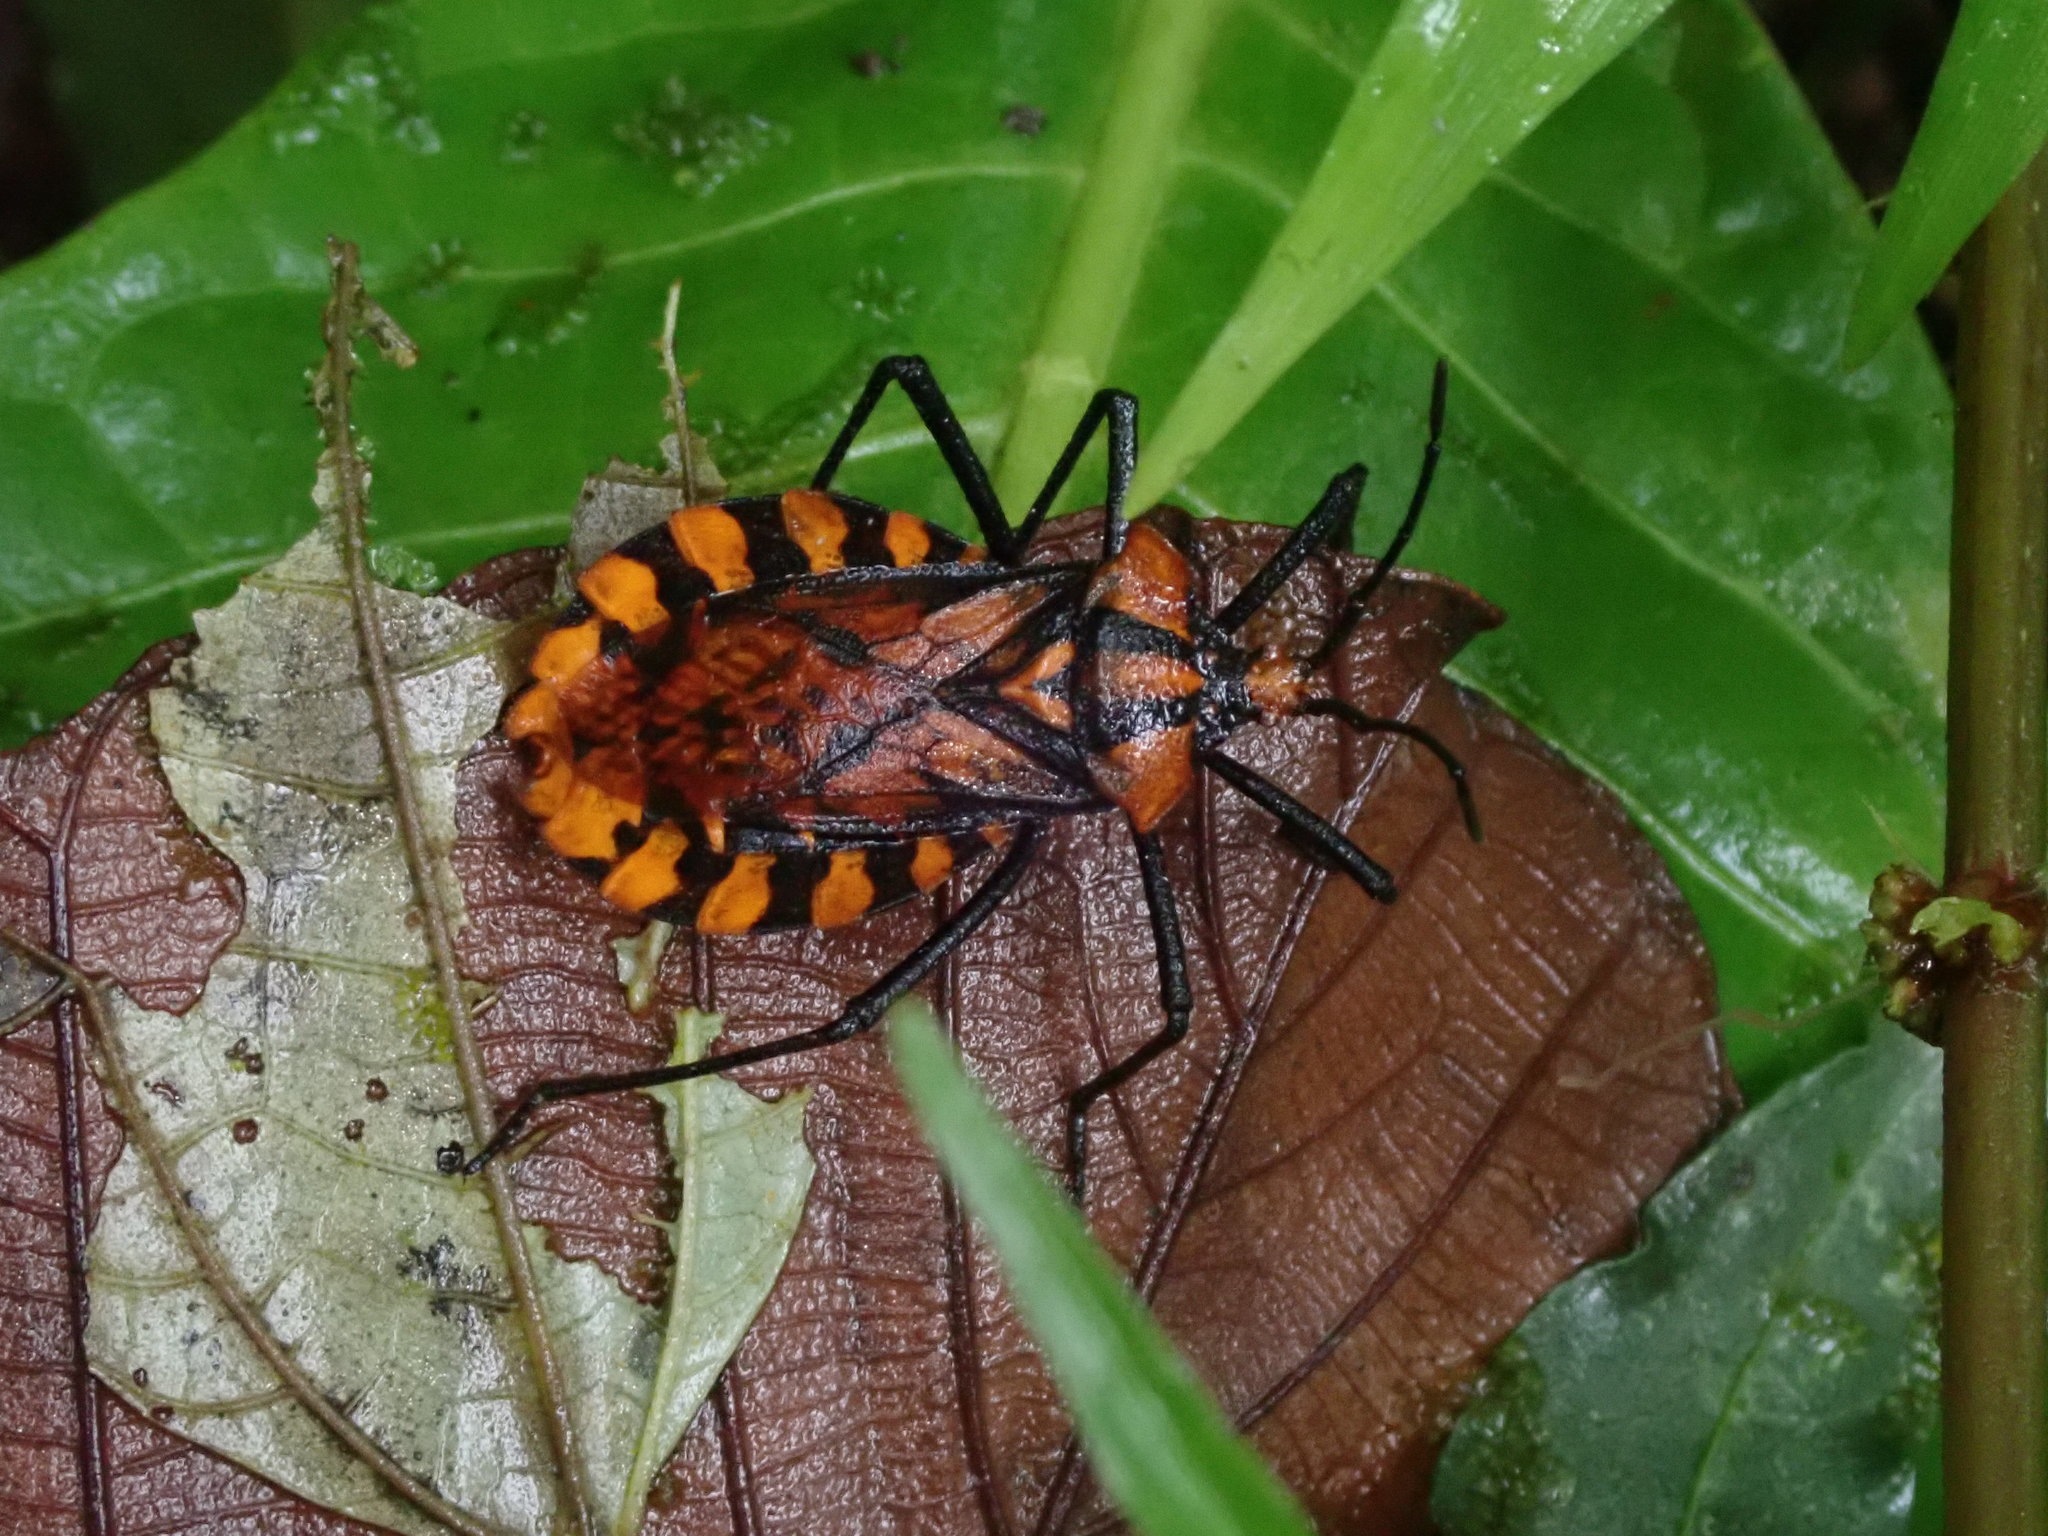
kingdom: Animalia
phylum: Arthropoda
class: Insecta
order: Hemiptera
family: Coreidae
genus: Spartocera
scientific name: Spartocera pantomima
